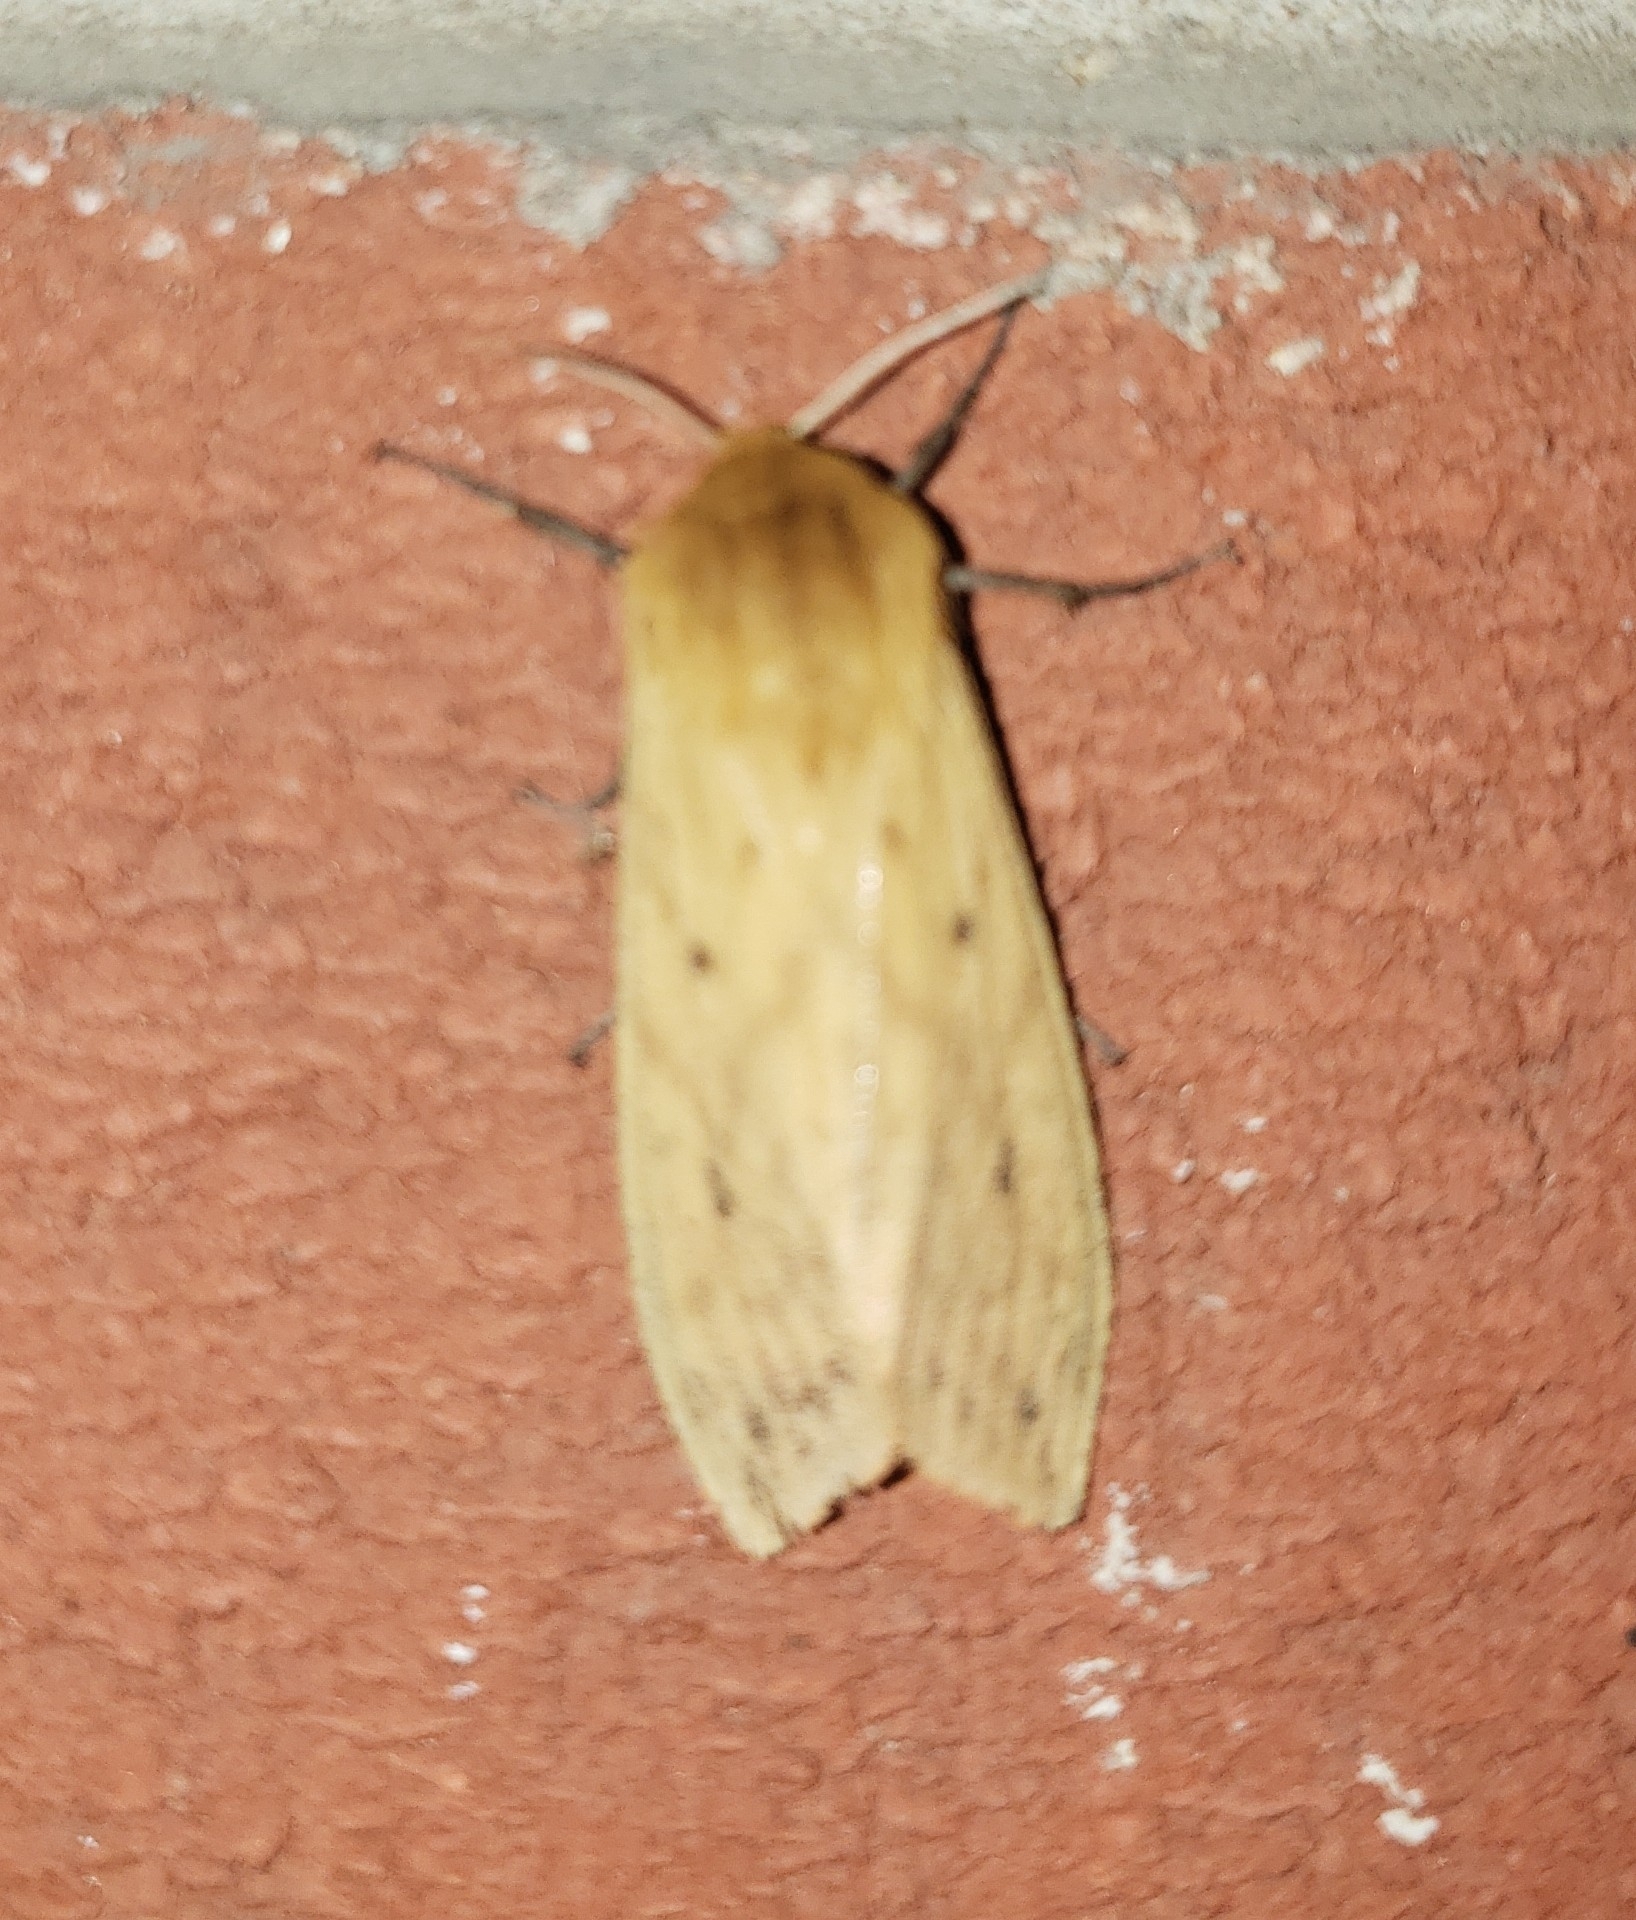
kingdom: Animalia
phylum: Arthropoda
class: Insecta
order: Lepidoptera
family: Erebidae
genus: Pyrrharctia
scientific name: Pyrrharctia isabella
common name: Isabella tiger moth
